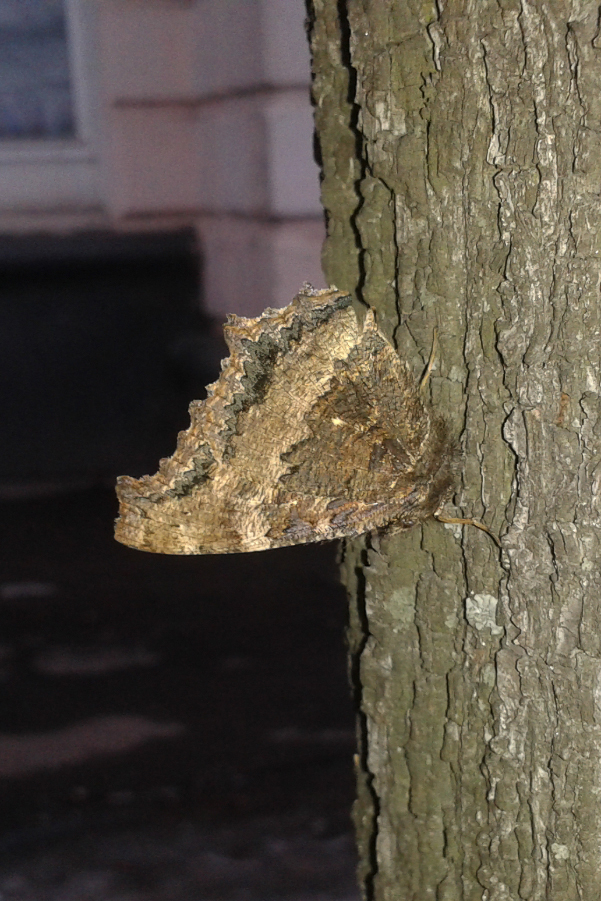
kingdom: Animalia
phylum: Arthropoda
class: Insecta
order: Lepidoptera
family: Nymphalidae
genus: Nymphalis
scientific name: Nymphalis xanthomelas
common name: Scarce tortoiseshell
